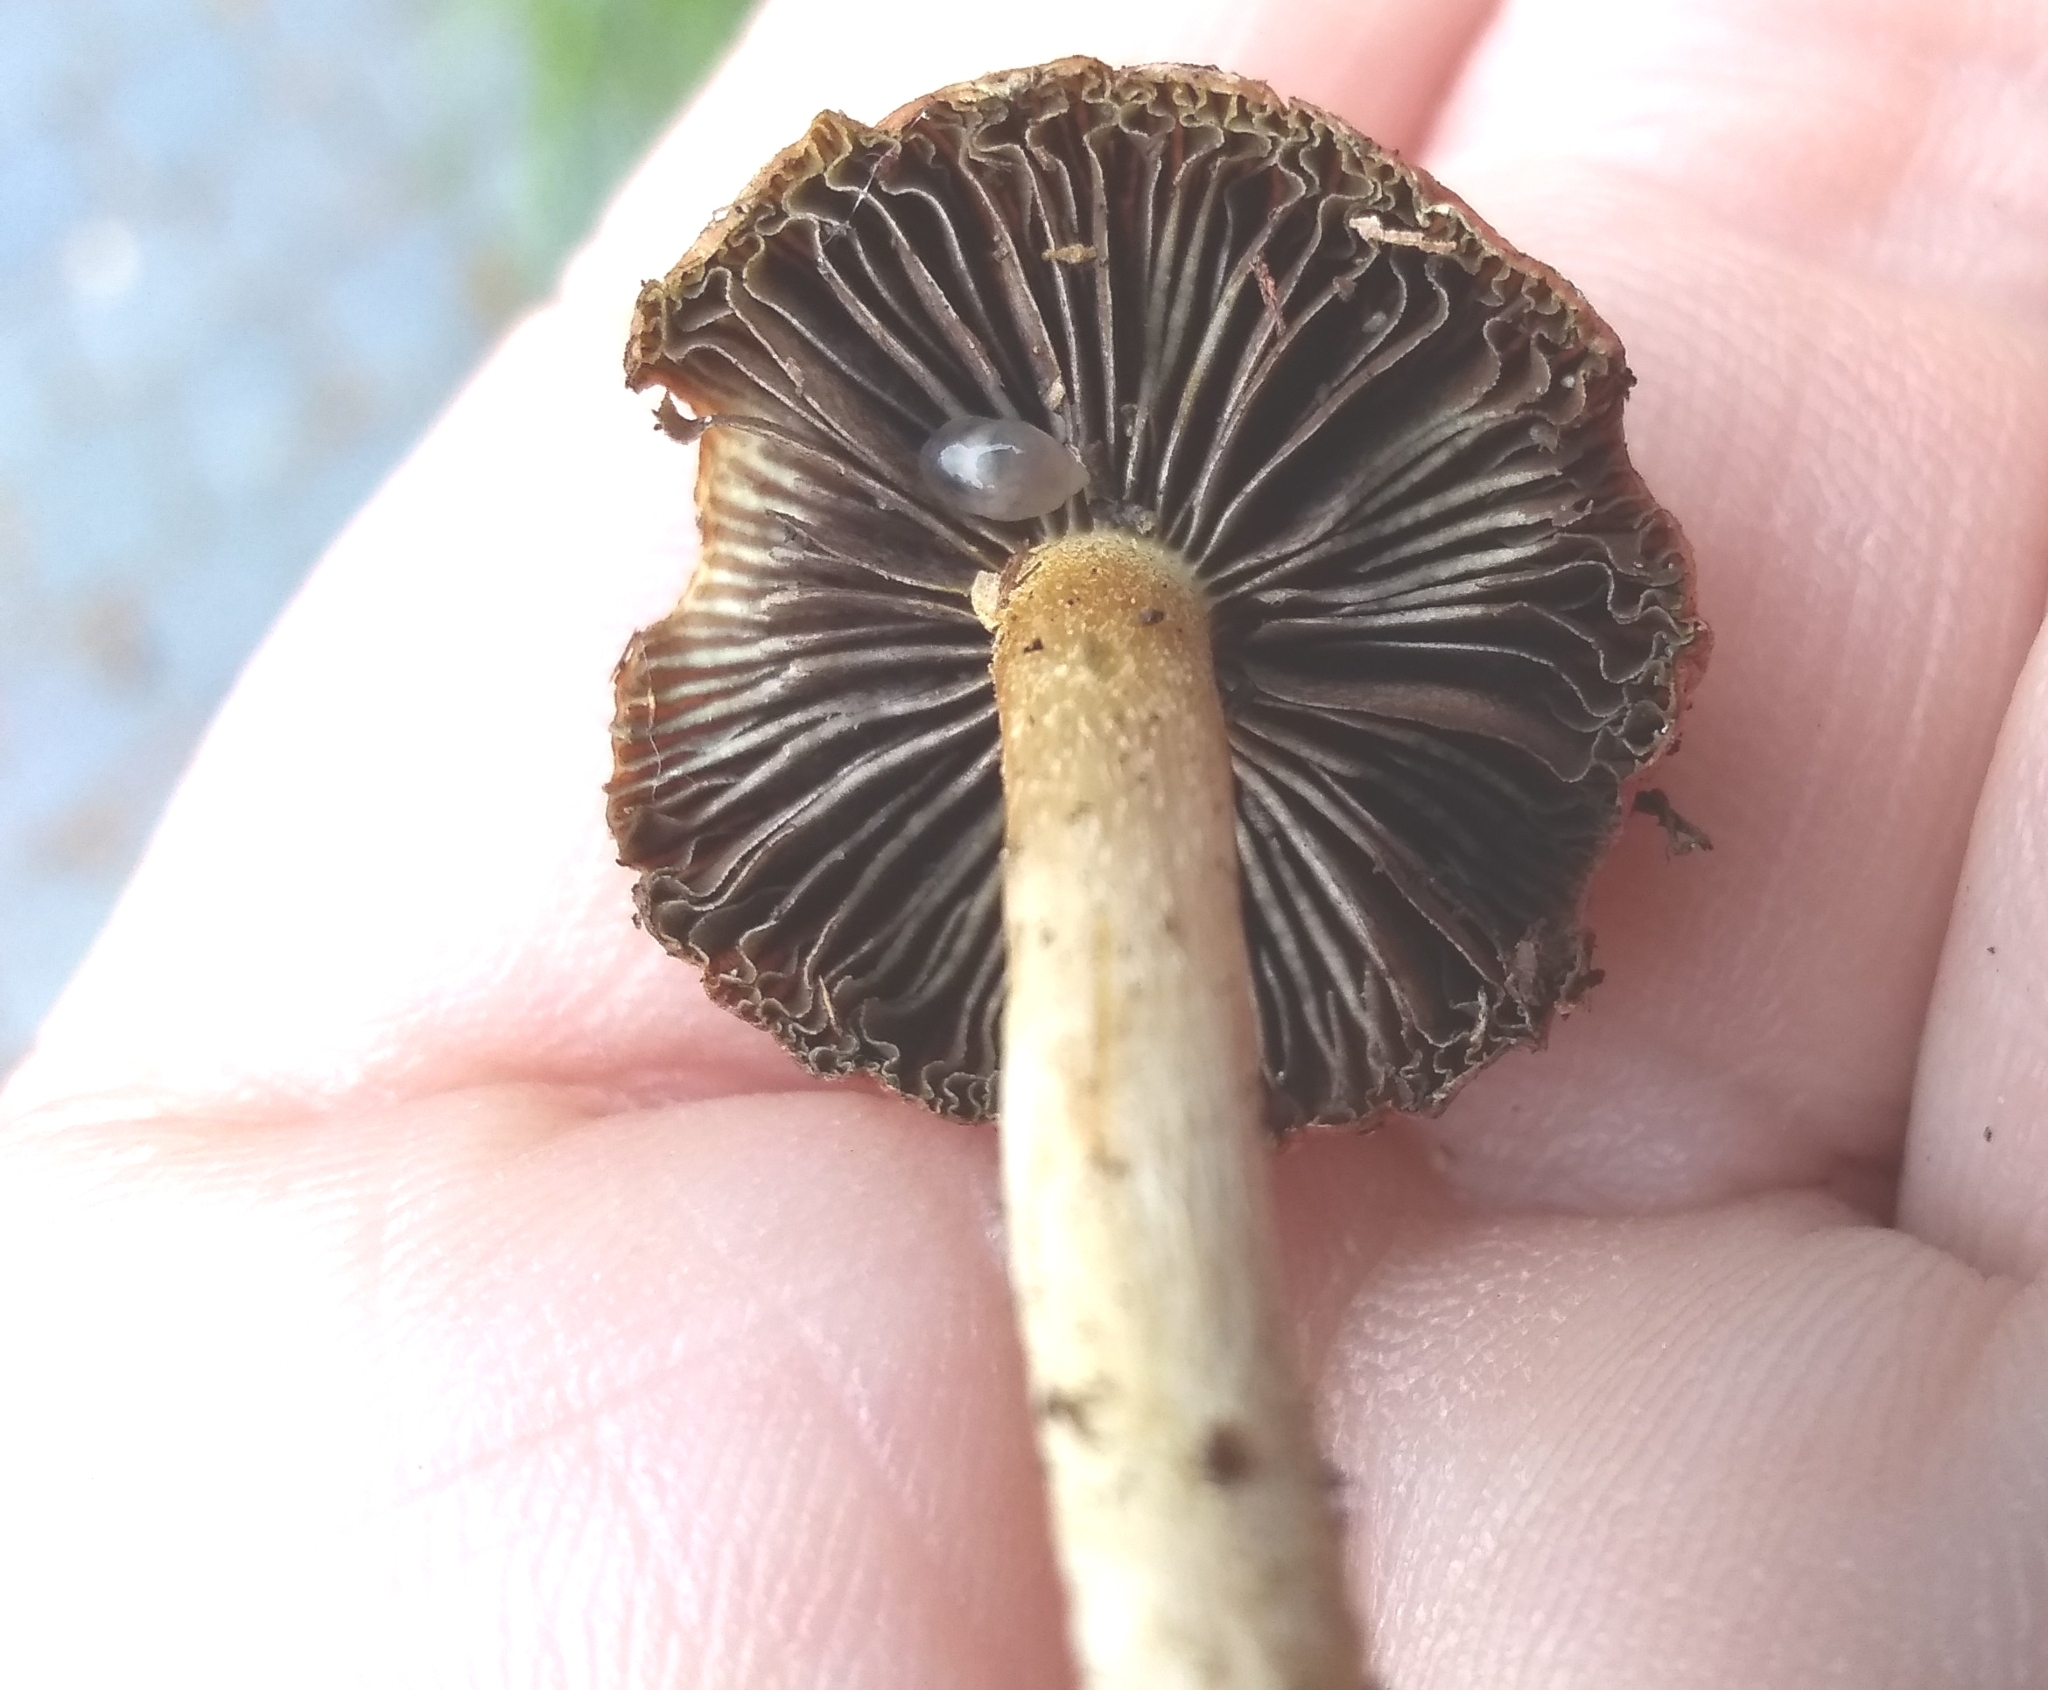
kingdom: Fungi
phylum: Basidiomycota
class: Agaricomycetes
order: Agaricales
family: Strophariaceae
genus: Leratiomyces
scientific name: Leratiomyces ceres
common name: Redlead roundhead
